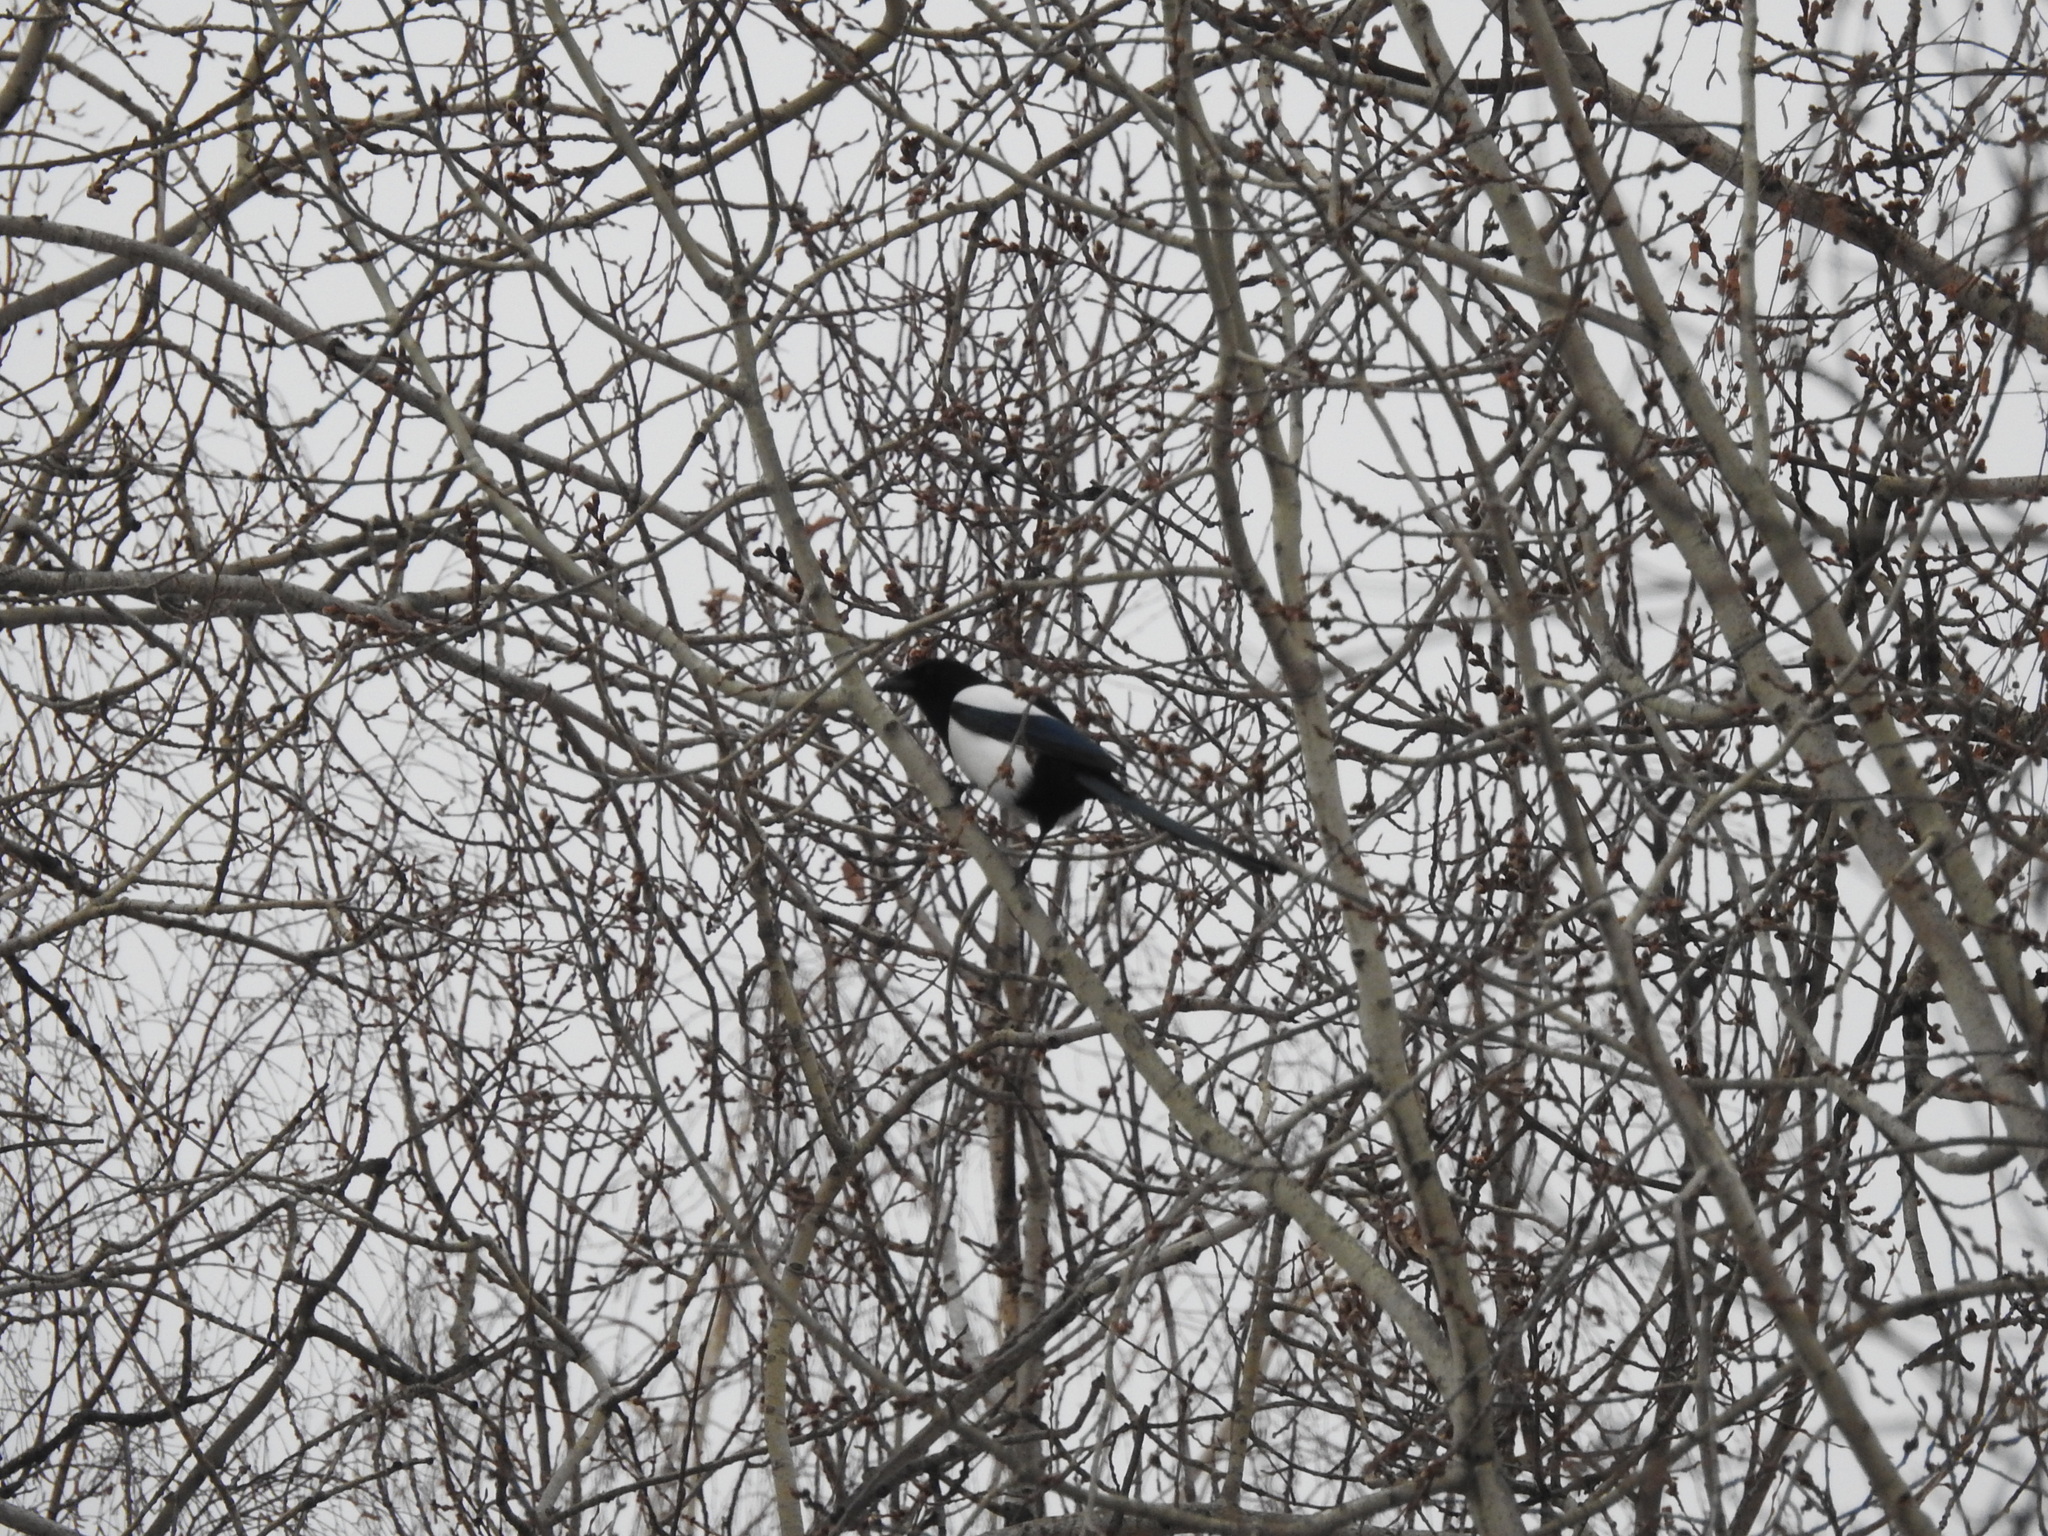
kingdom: Animalia
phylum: Chordata
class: Aves
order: Passeriformes
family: Corvidae
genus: Pica
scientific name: Pica pica
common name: Eurasian magpie
